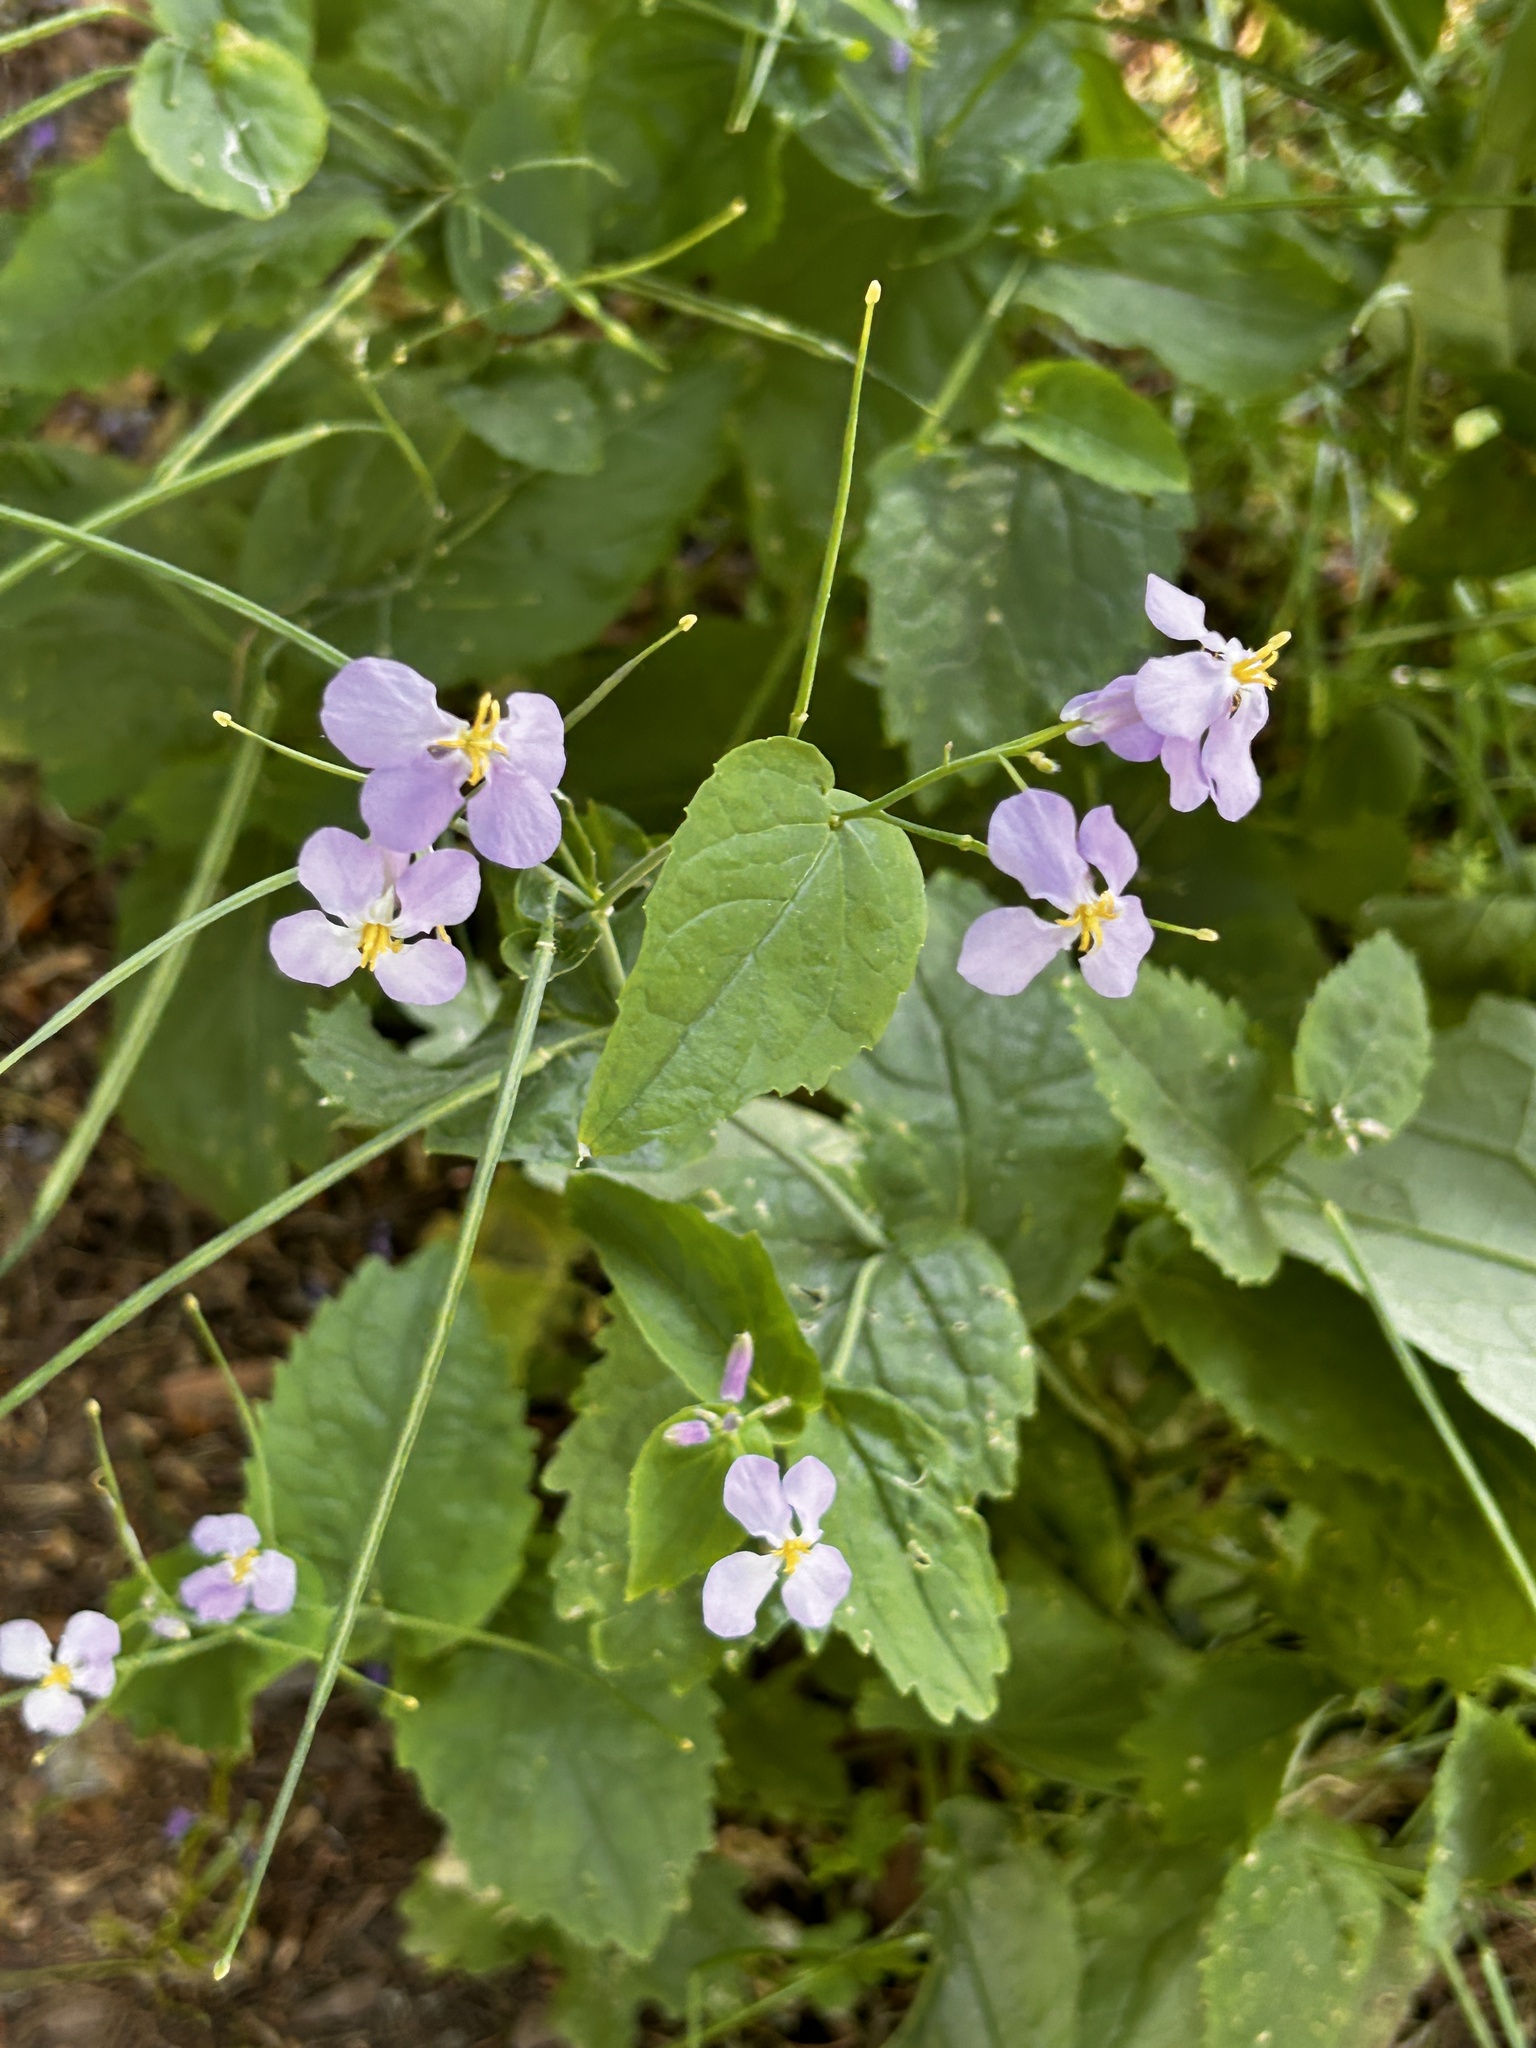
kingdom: Plantae
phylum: Tracheophyta
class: Magnoliopsida
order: Brassicales
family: Brassicaceae
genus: Orychophragmus
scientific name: Orychophragmus violaceus
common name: Mustard
